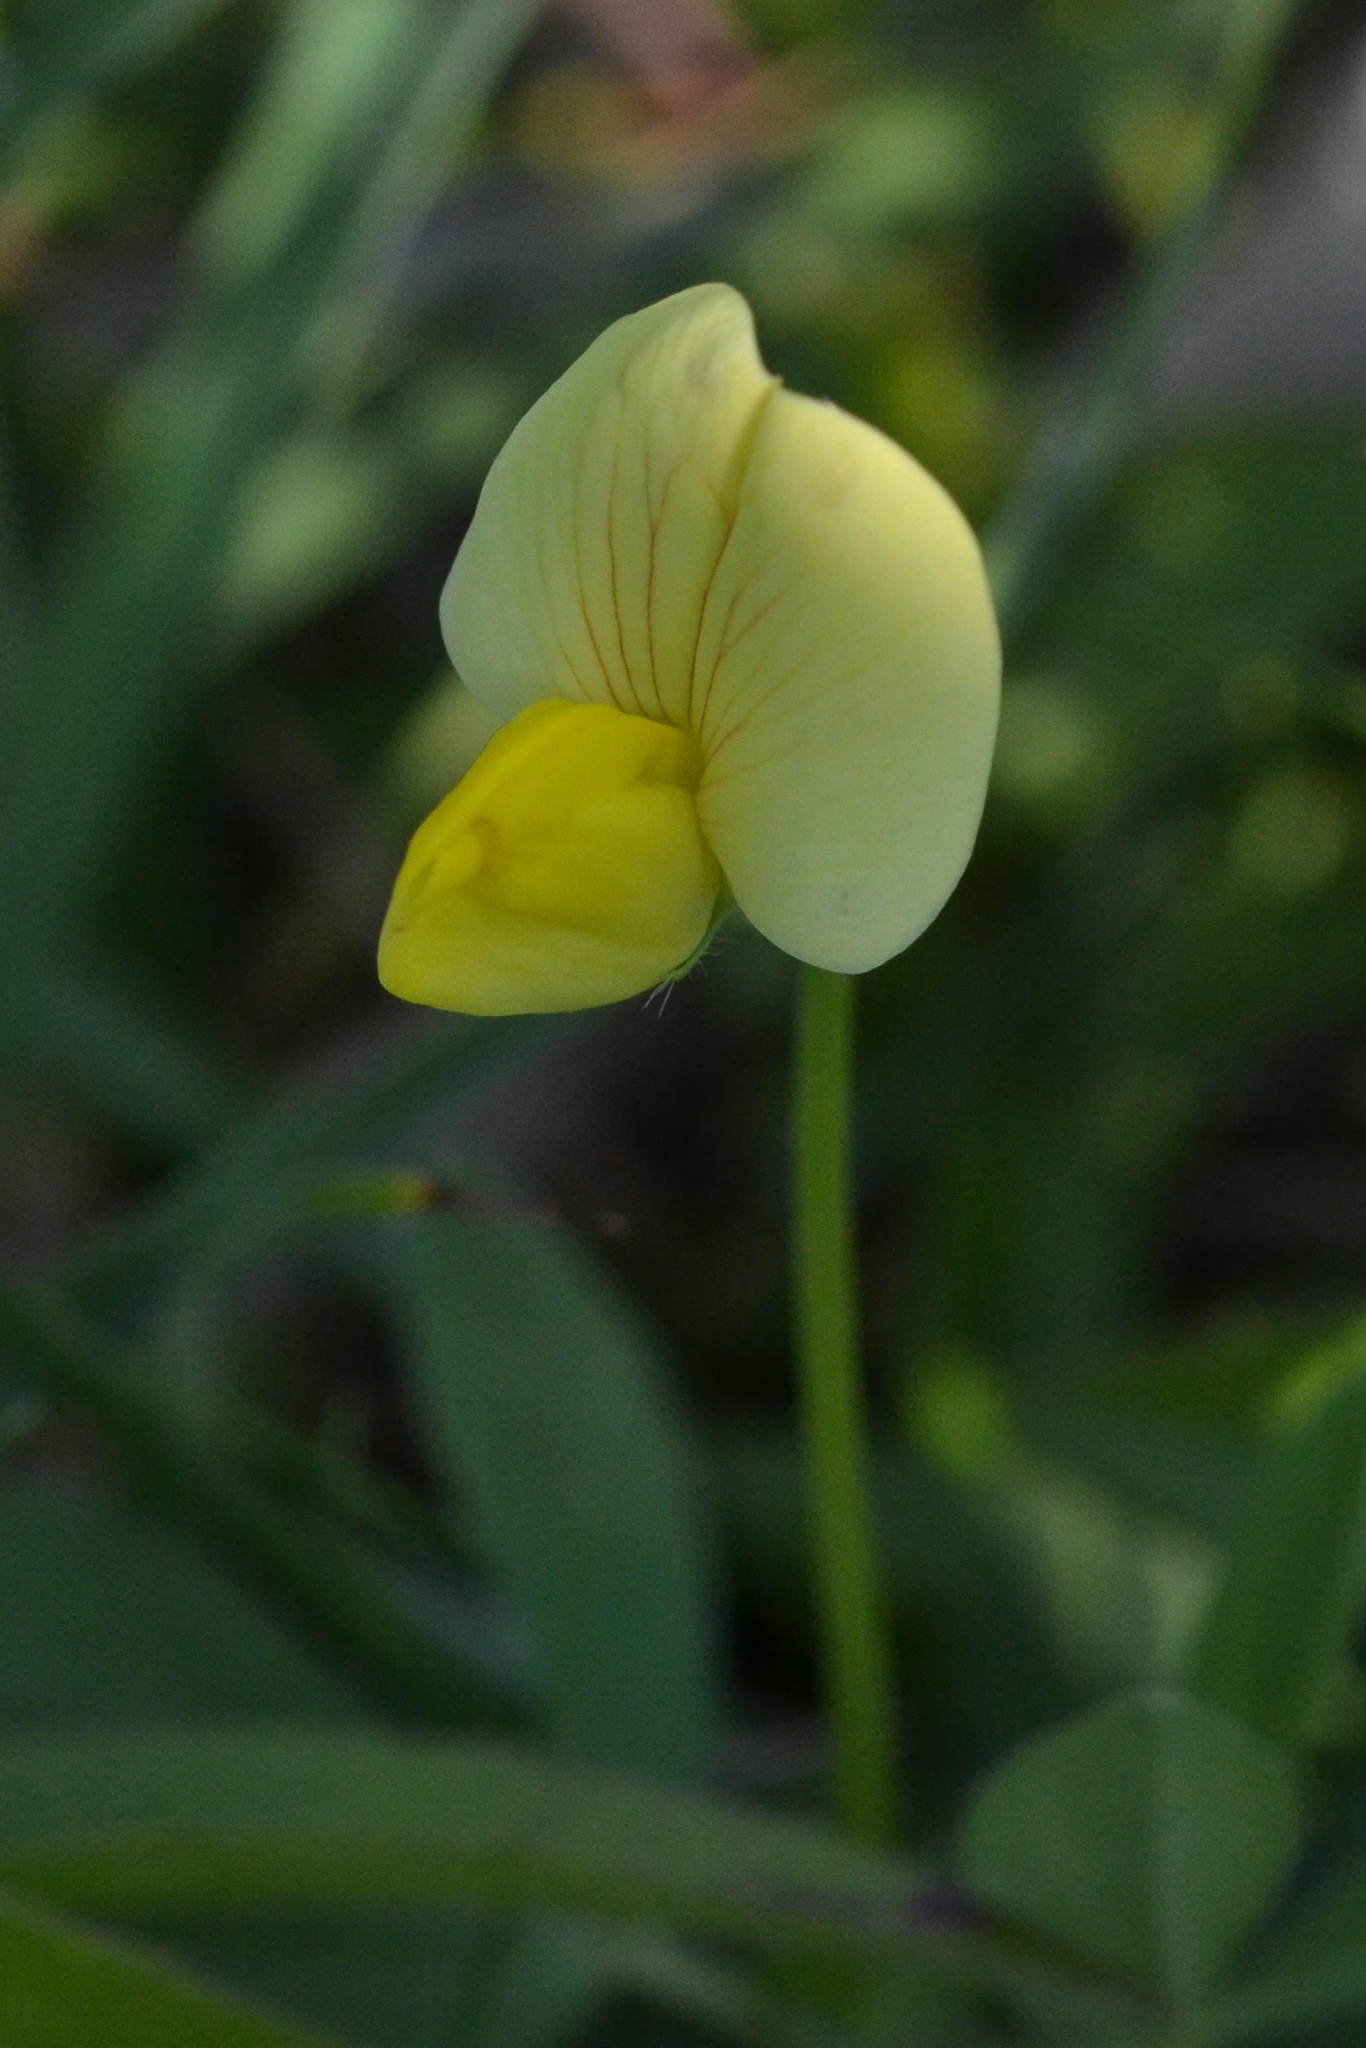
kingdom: Plantae
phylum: Tracheophyta
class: Magnoliopsida
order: Fabales
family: Fabaceae
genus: Lotus
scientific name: Lotus maritimus
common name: Dragon's-teeth
